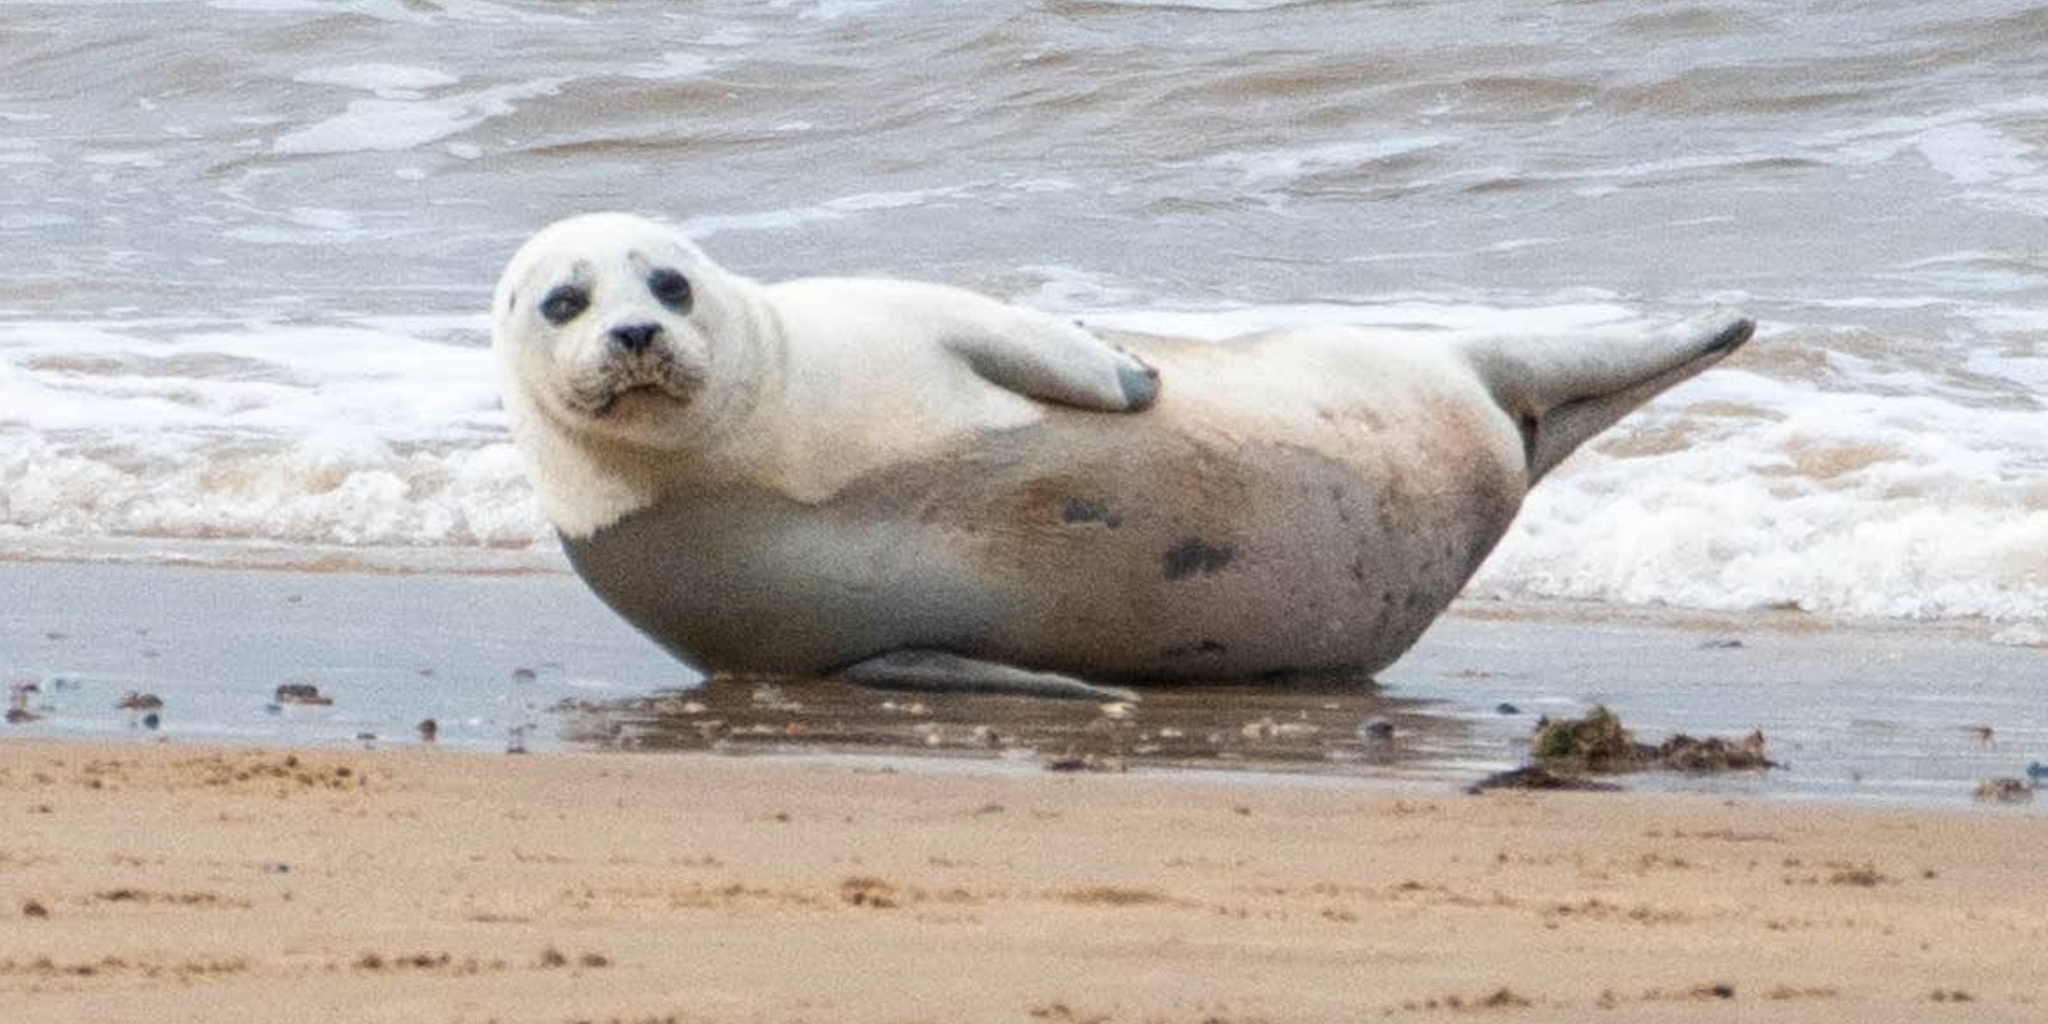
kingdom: Animalia
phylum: Chordata
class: Mammalia
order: Carnivora
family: Phocidae
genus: Phoca
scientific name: Phoca vitulina
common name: Harbor seal
